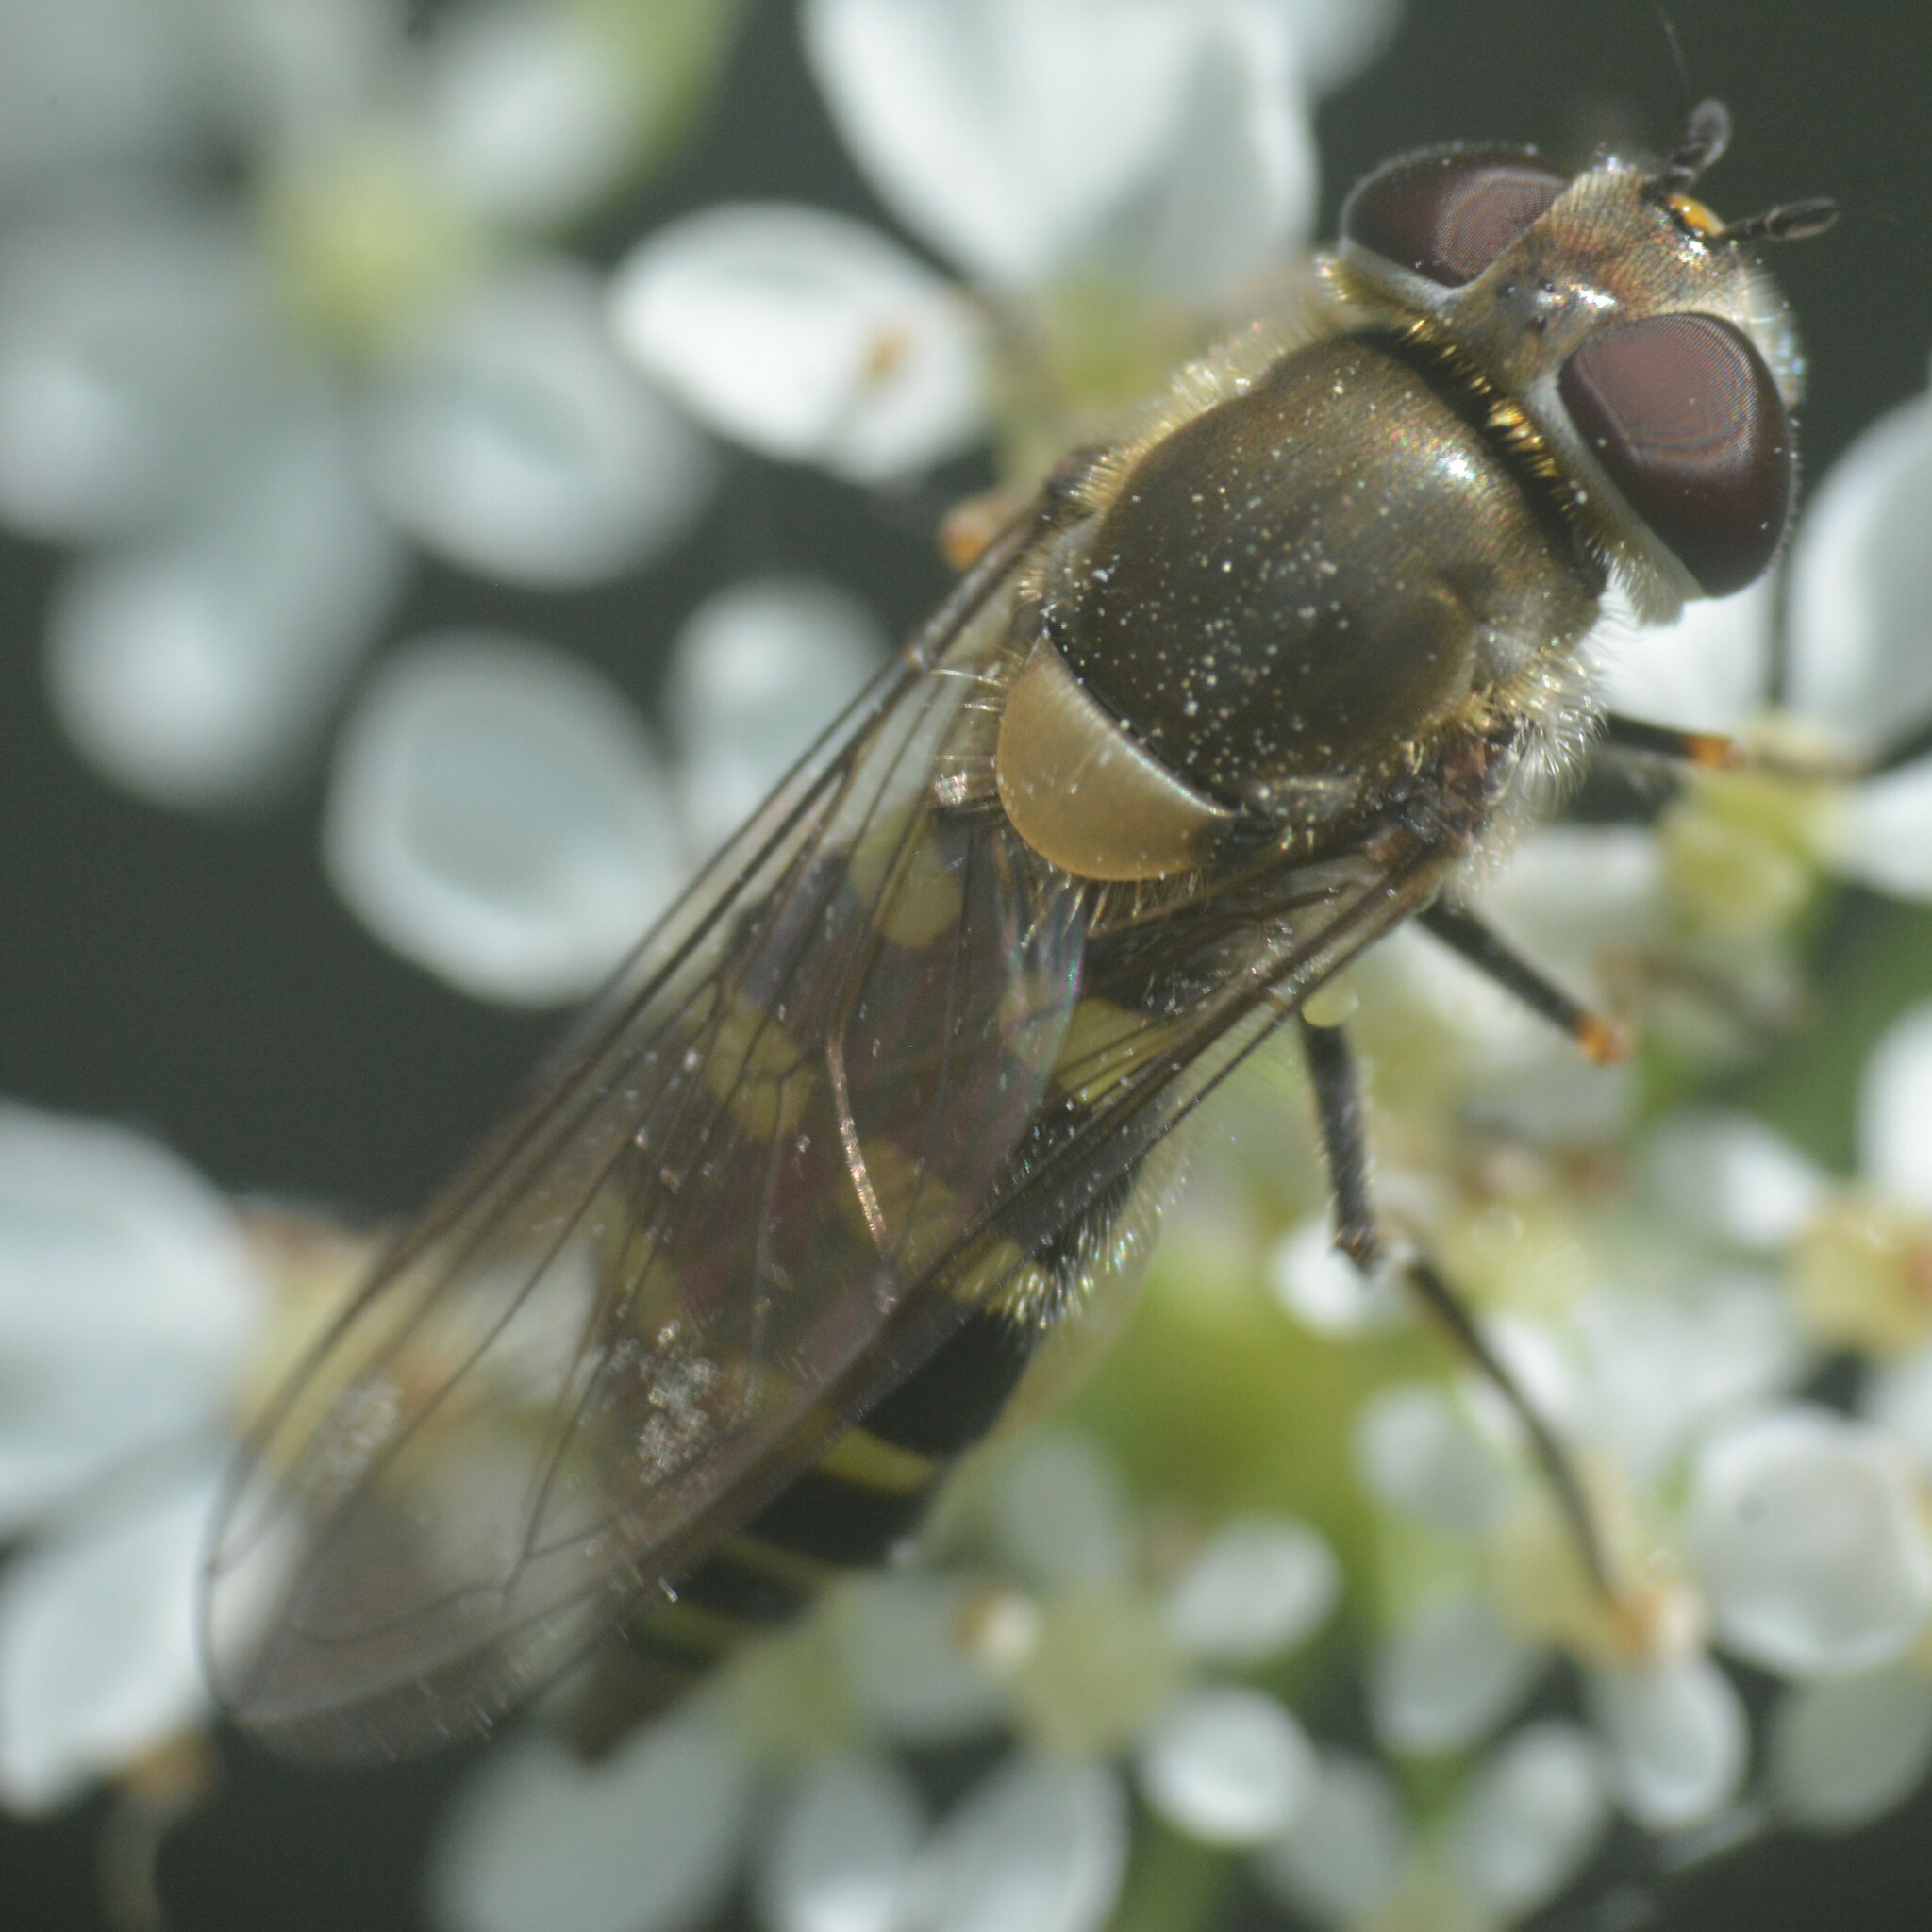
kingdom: Animalia
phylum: Arthropoda
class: Insecta
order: Diptera
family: Syrphidae
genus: Melangyna
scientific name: Melangyna labiatarum
